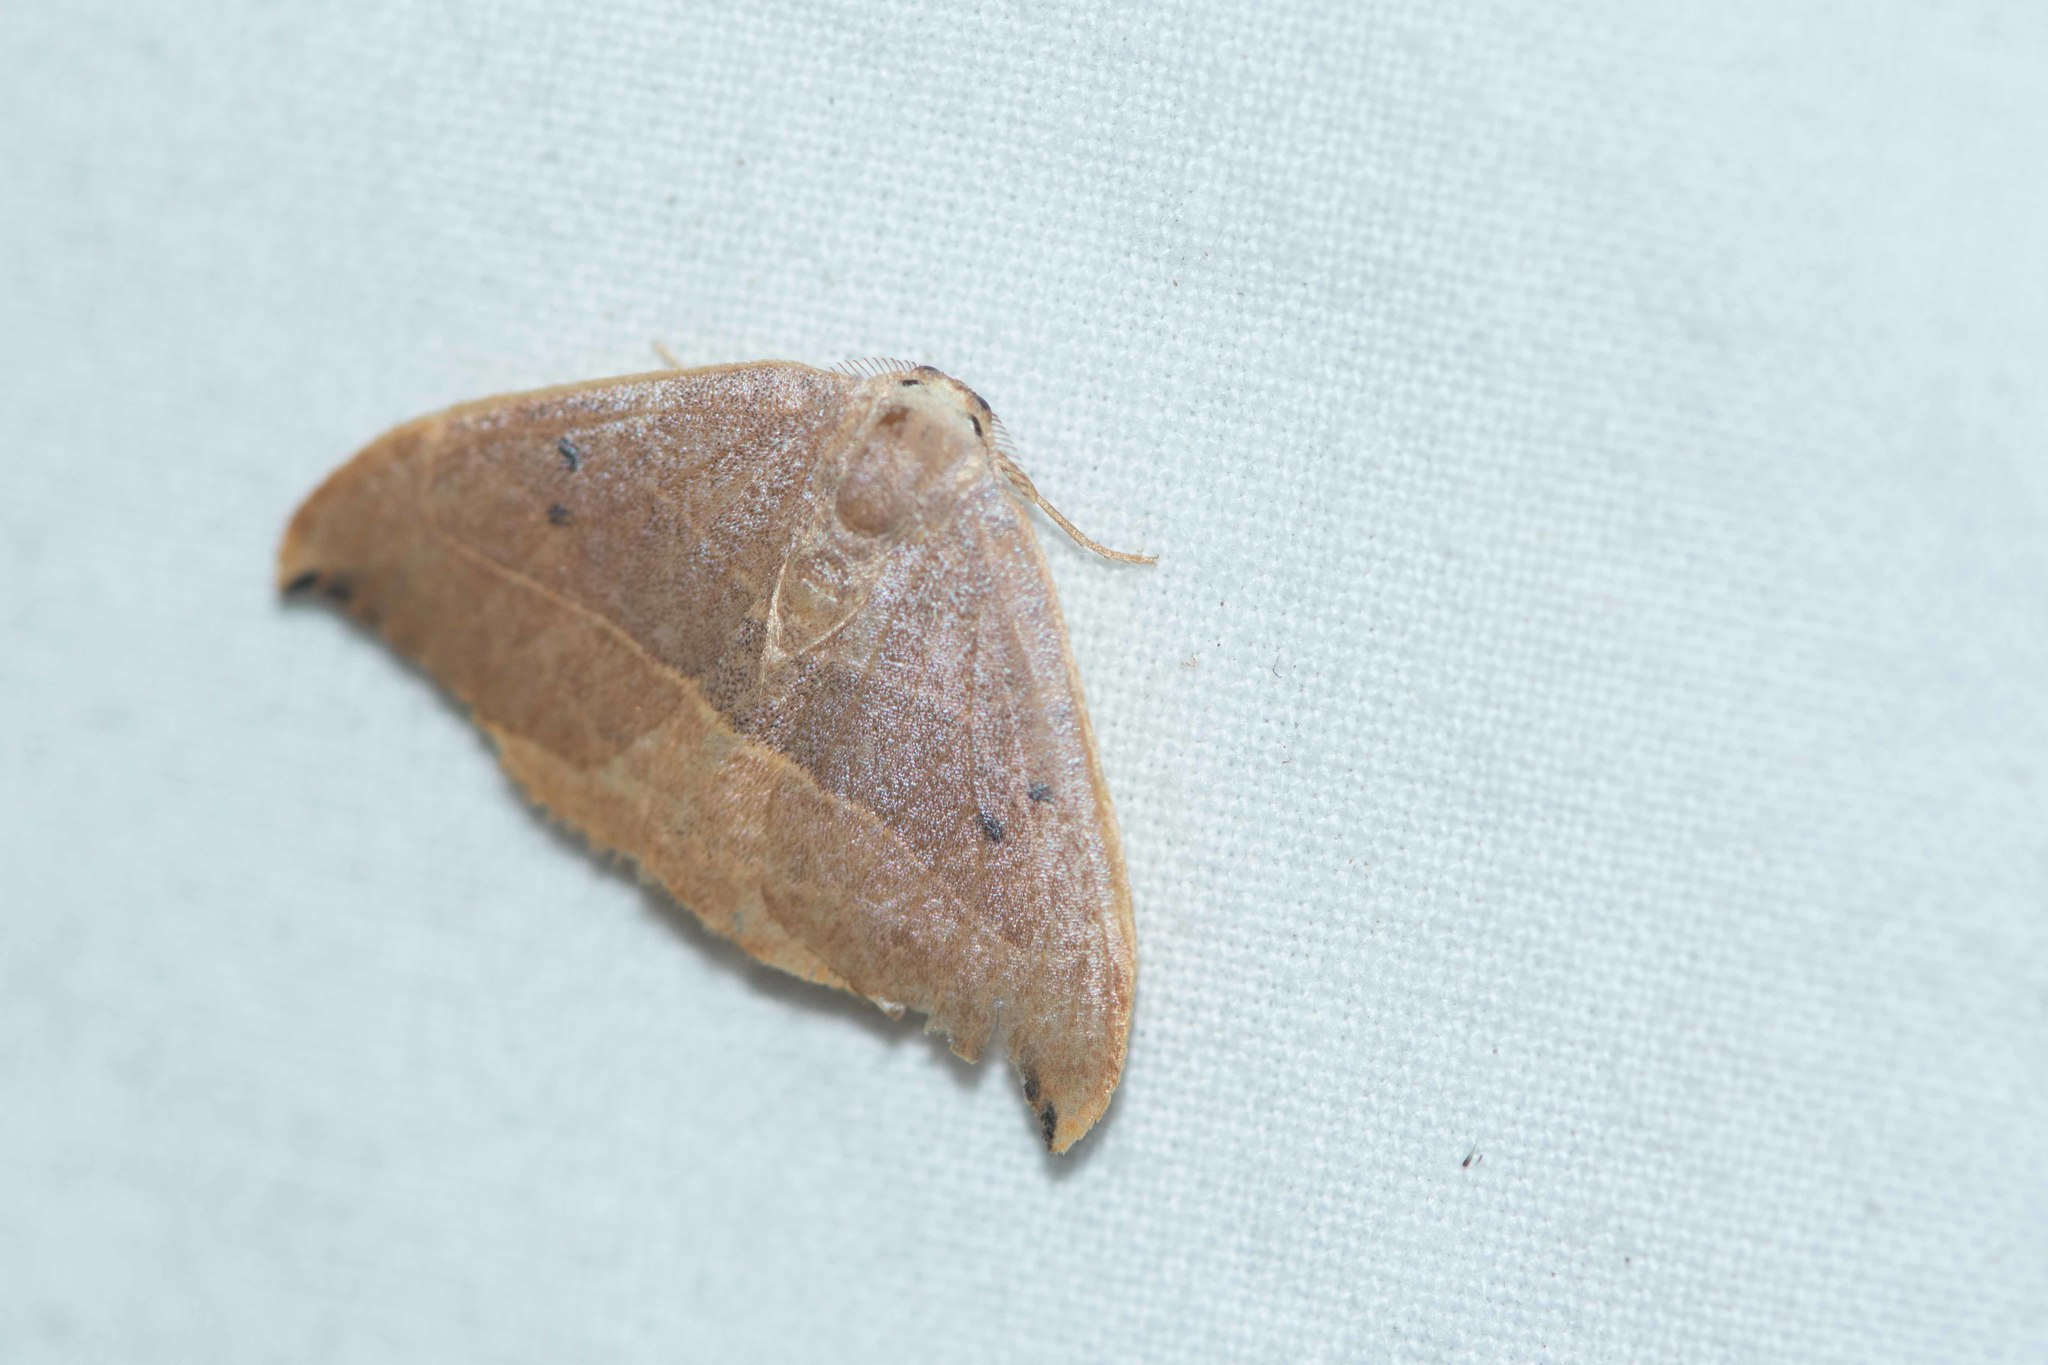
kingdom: Animalia
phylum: Arthropoda
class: Insecta
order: Lepidoptera
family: Drepanidae
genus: Watsonalla
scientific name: Watsonalla binaria
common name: Oak hook-tip
